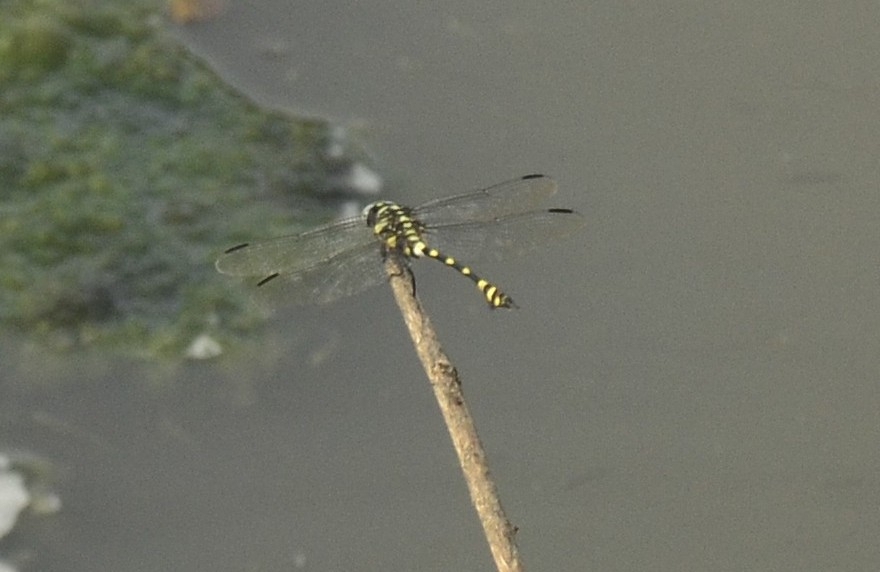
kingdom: Animalia
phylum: Arthropoda
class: Insecta
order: Odonata
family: Gomphidae
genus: Ictinogomphus
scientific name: Ictinogomphus rapax
